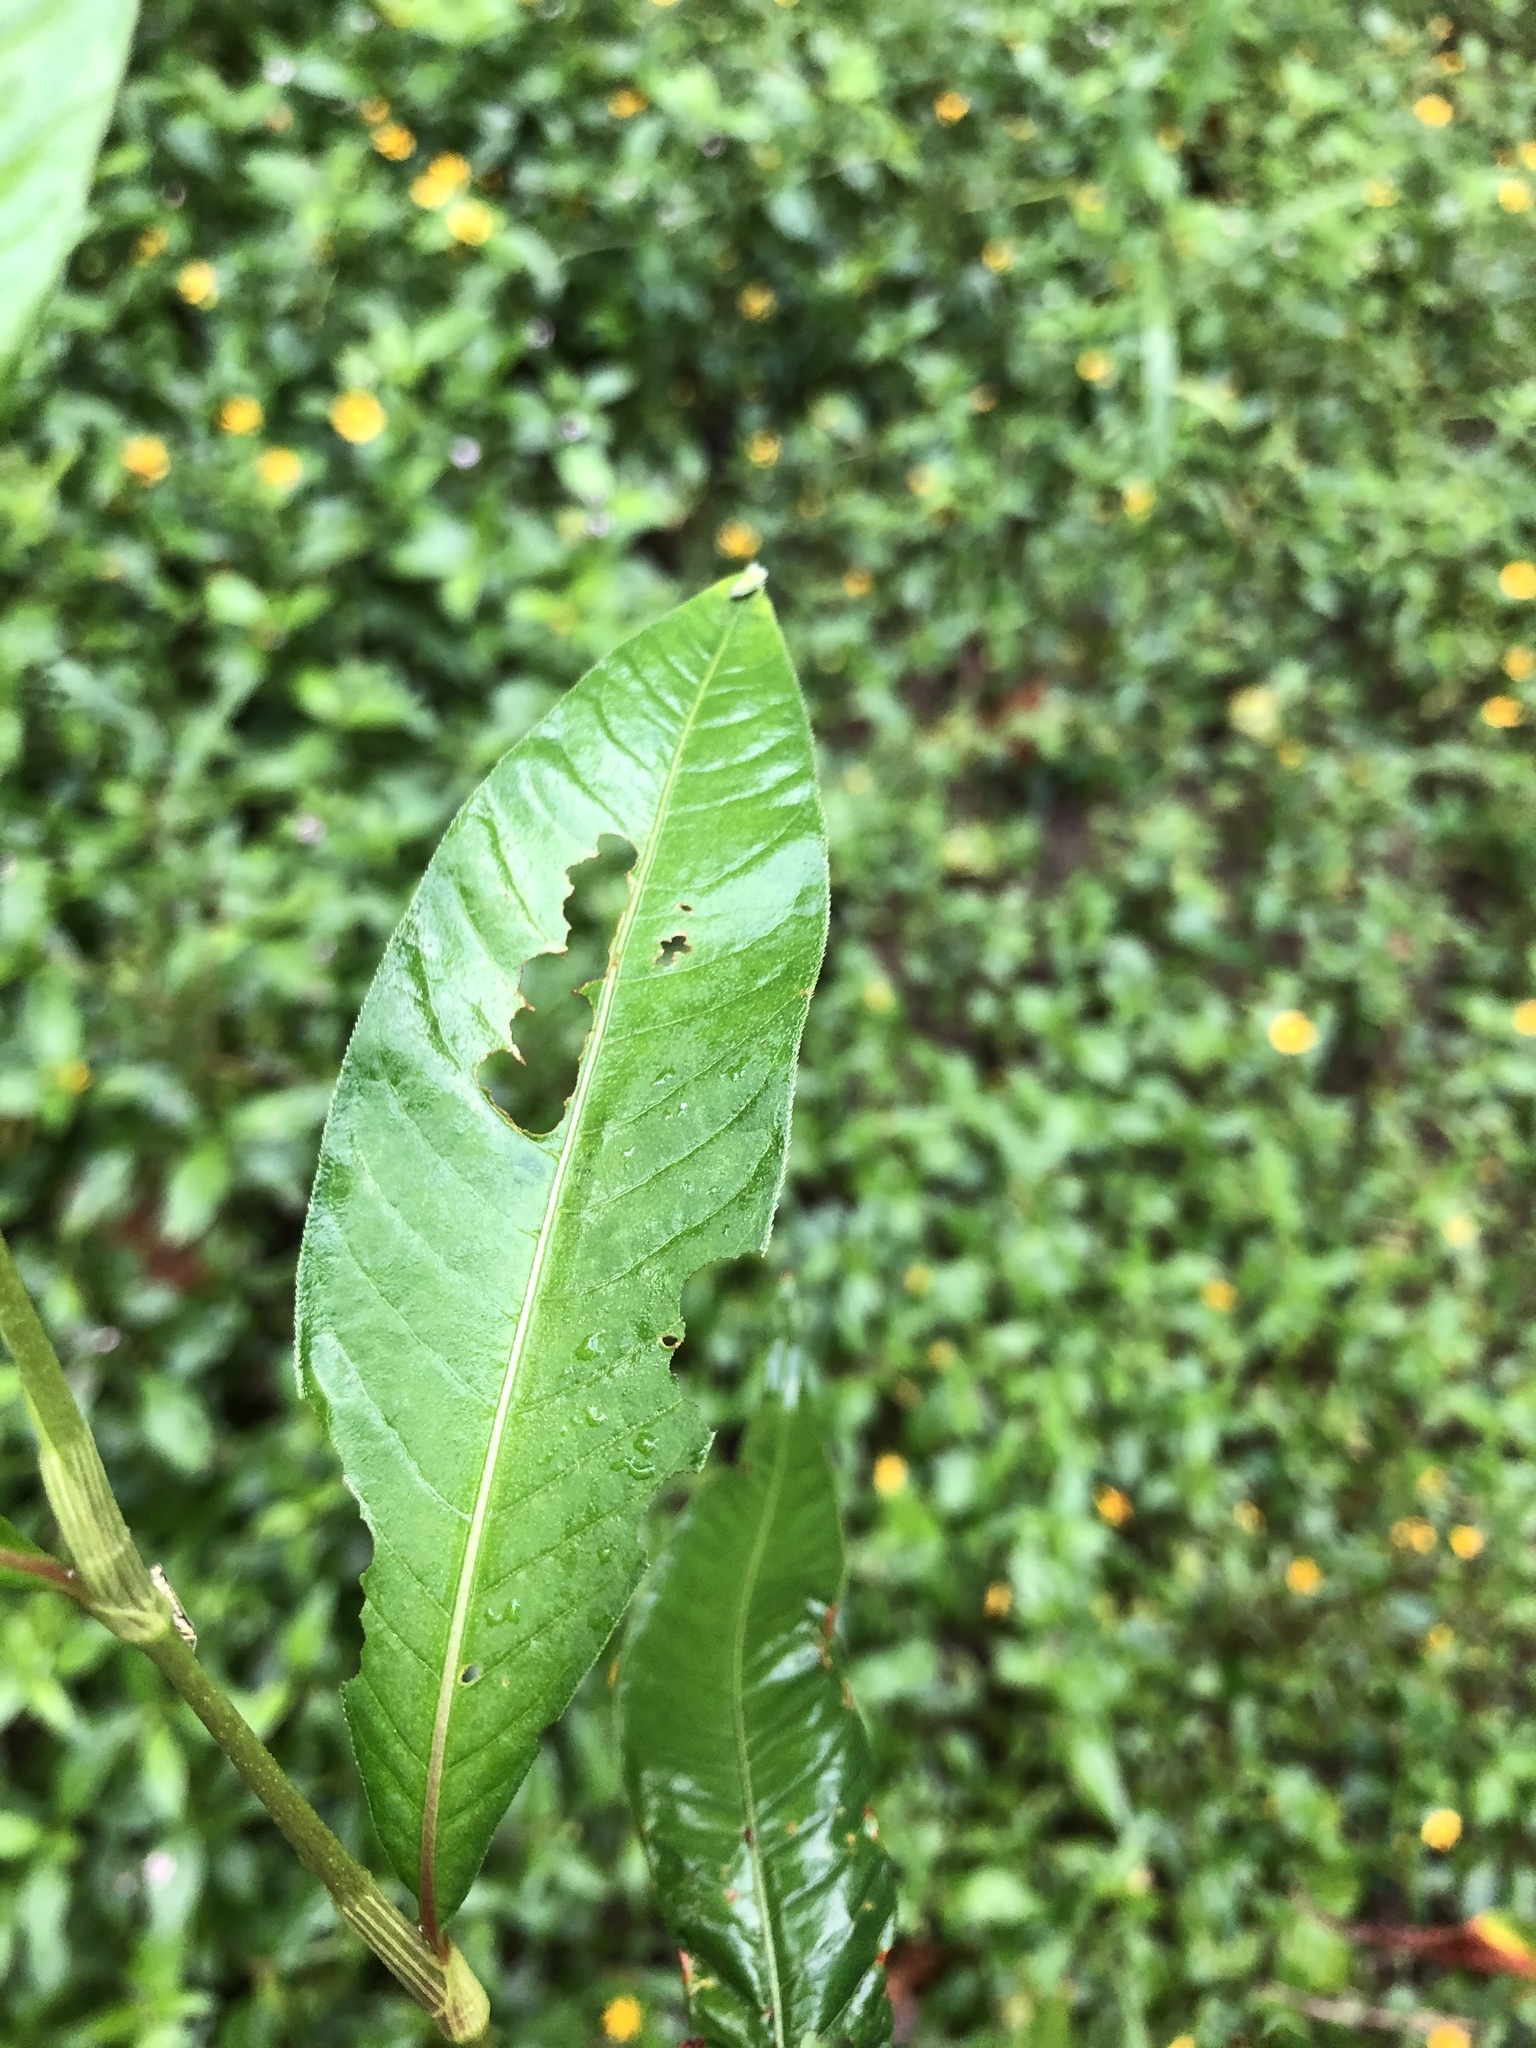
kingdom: Plantae
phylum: Tracheophyta
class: Magnoliopsida
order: Caryophyllales
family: Polygonaceae
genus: Persicaria
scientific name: Persicaria lapathifolia
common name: Curlytop knotweed
